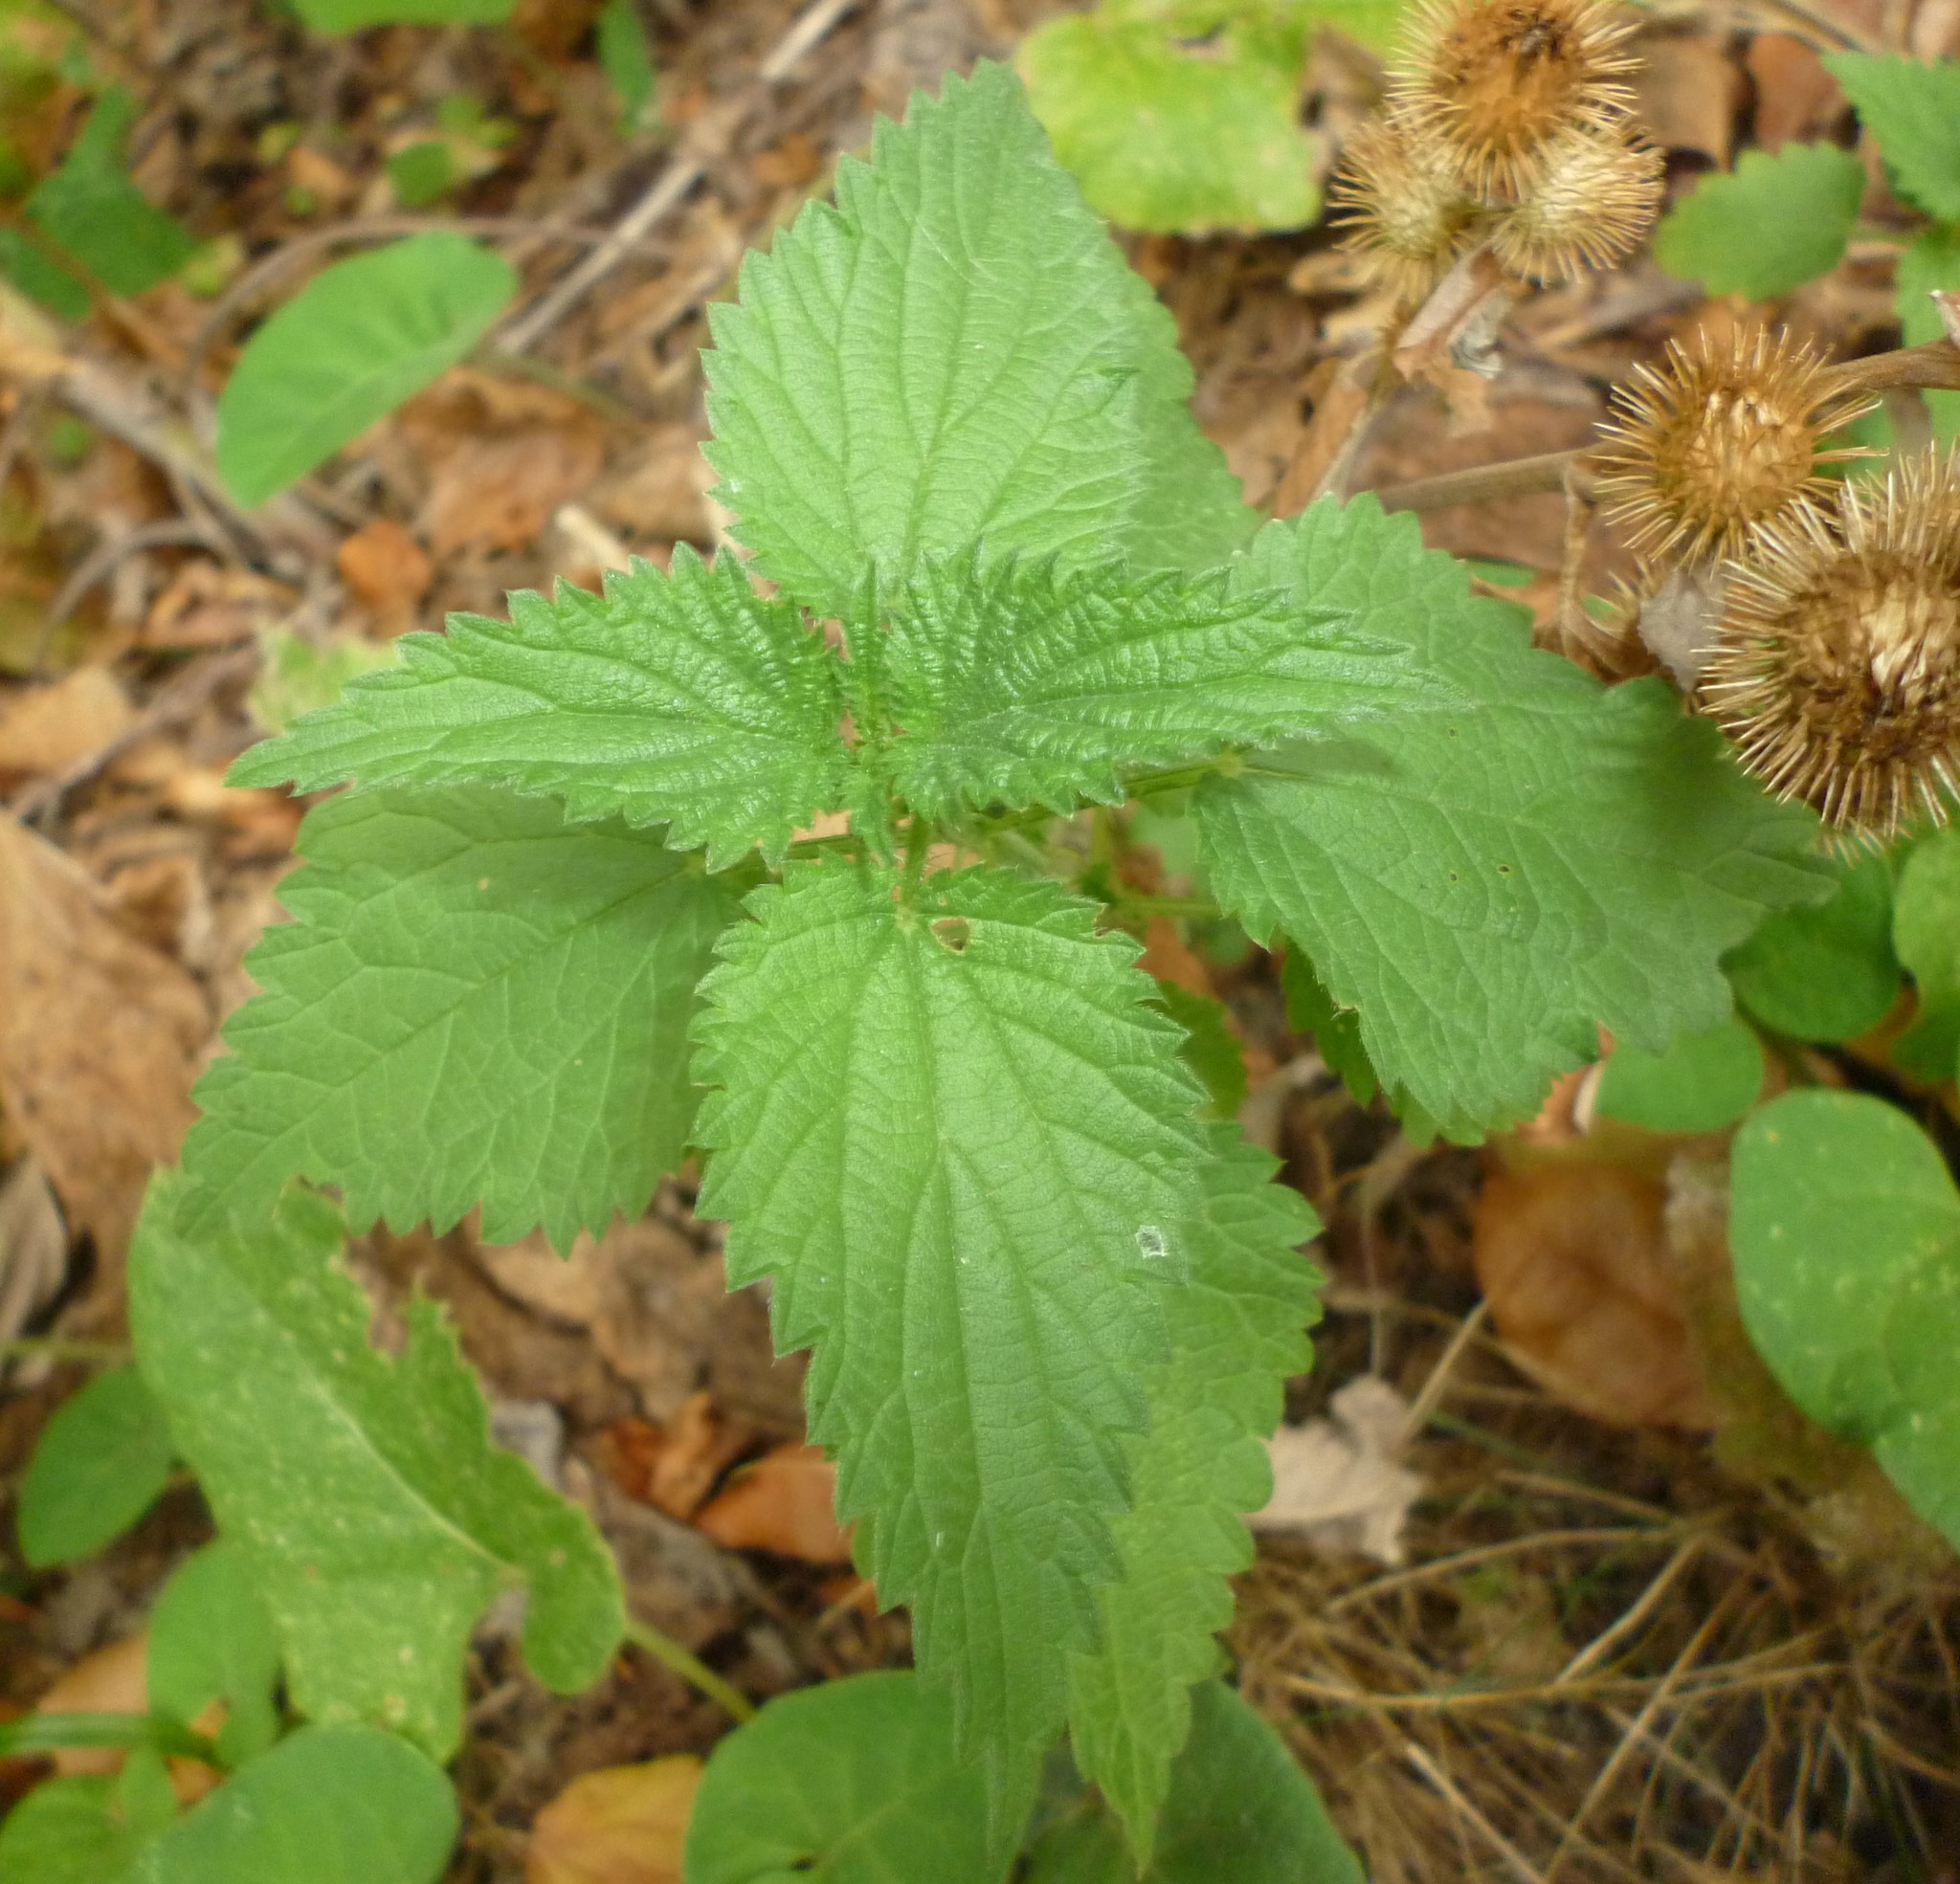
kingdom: Plantae
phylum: Tracheophyta
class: Magnoliopsida
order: Rosales
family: Urticaceae
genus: Urtica
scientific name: Urtica dioica
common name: Common nettle
